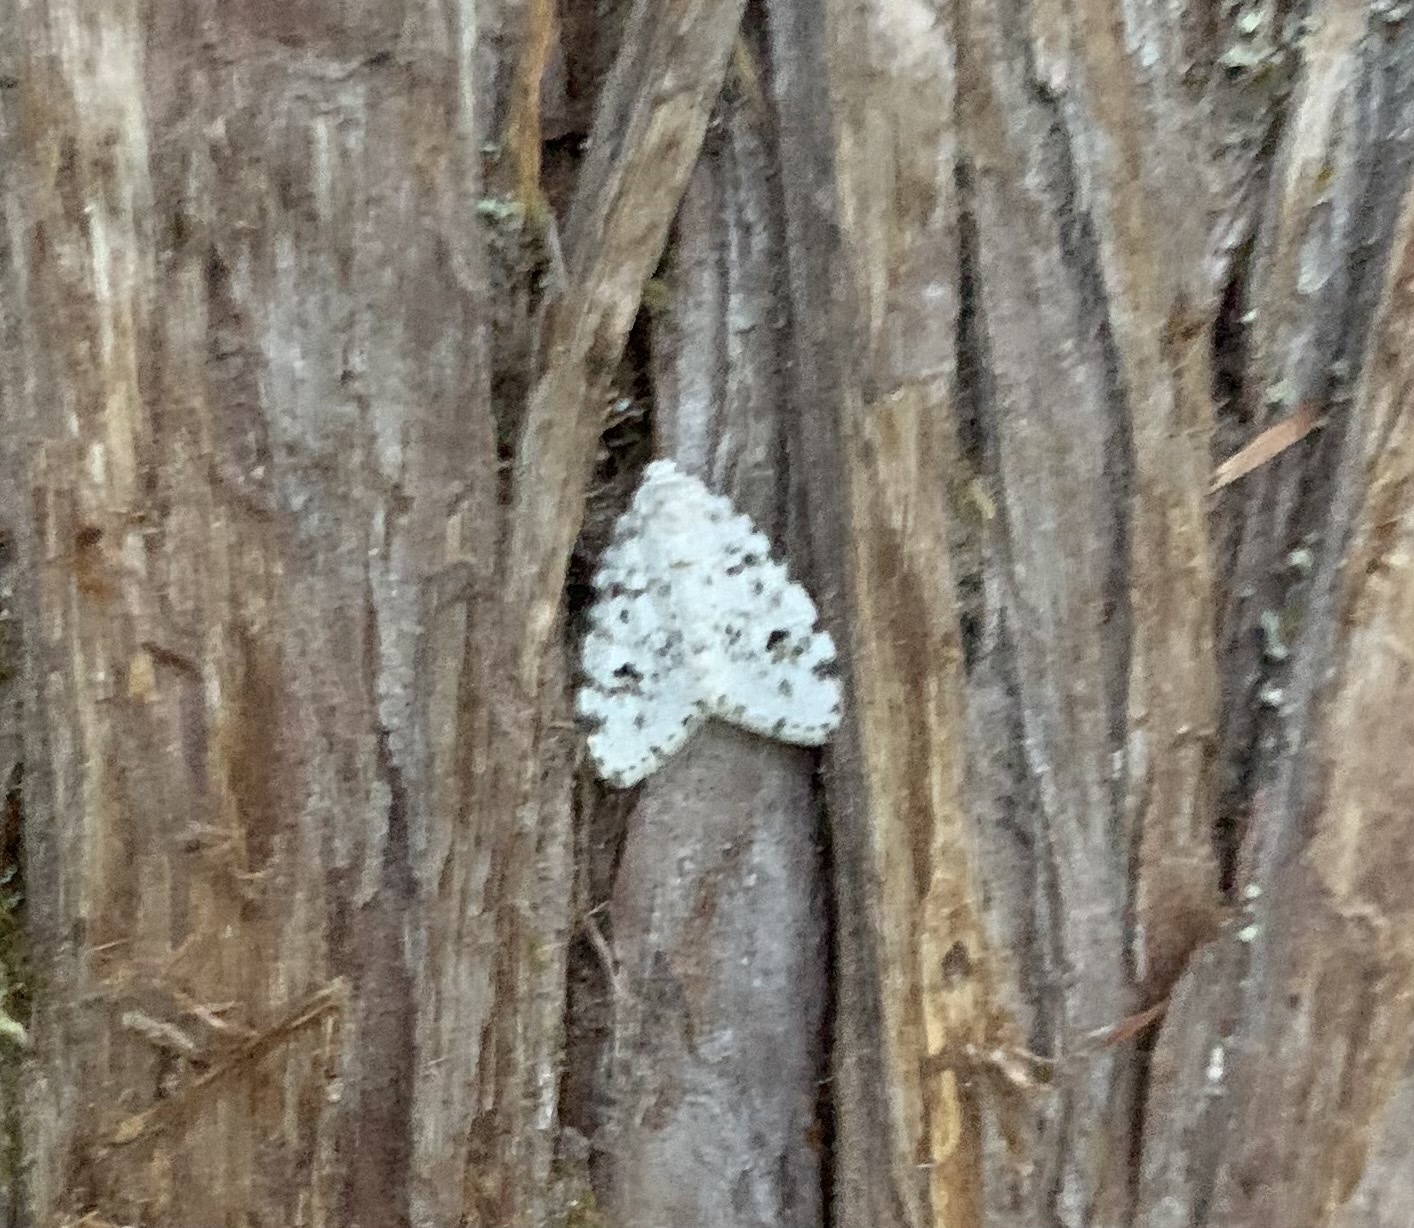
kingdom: Animalia
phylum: Arthropoda
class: Insecta
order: Lepidoptera
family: Erebidae
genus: Clemensia
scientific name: Clemensia umbrata
